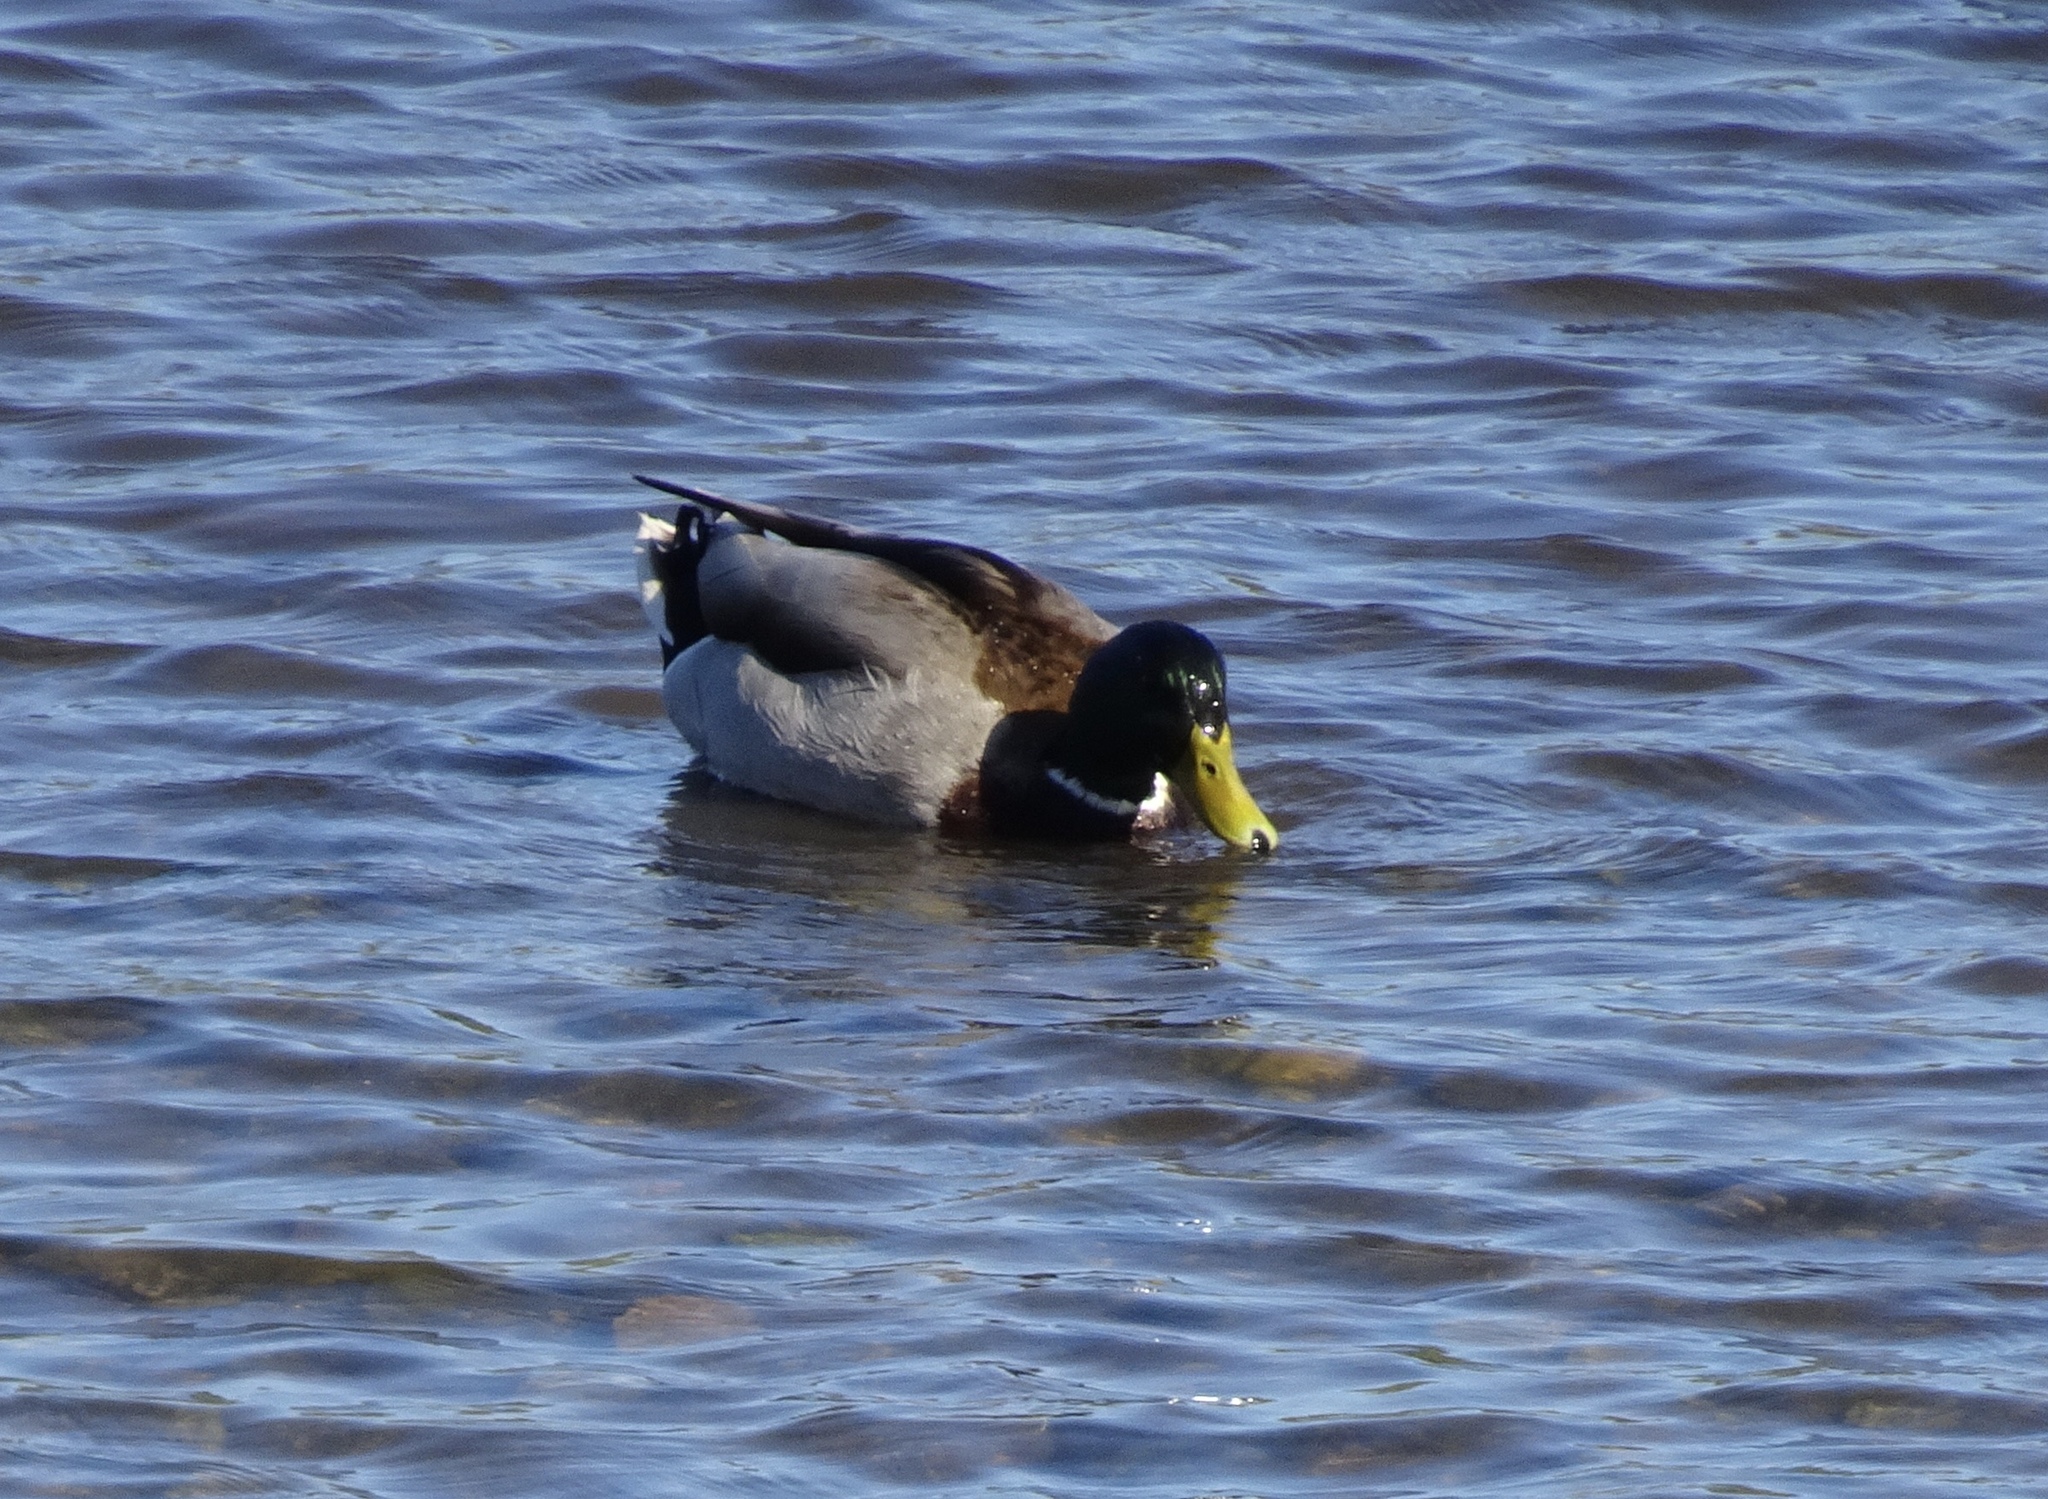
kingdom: Animalia
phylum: Chordata
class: Aves
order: Anseriformes
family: Anatidae
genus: Anas
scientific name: Anas platyrhynchos
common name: Mallard
